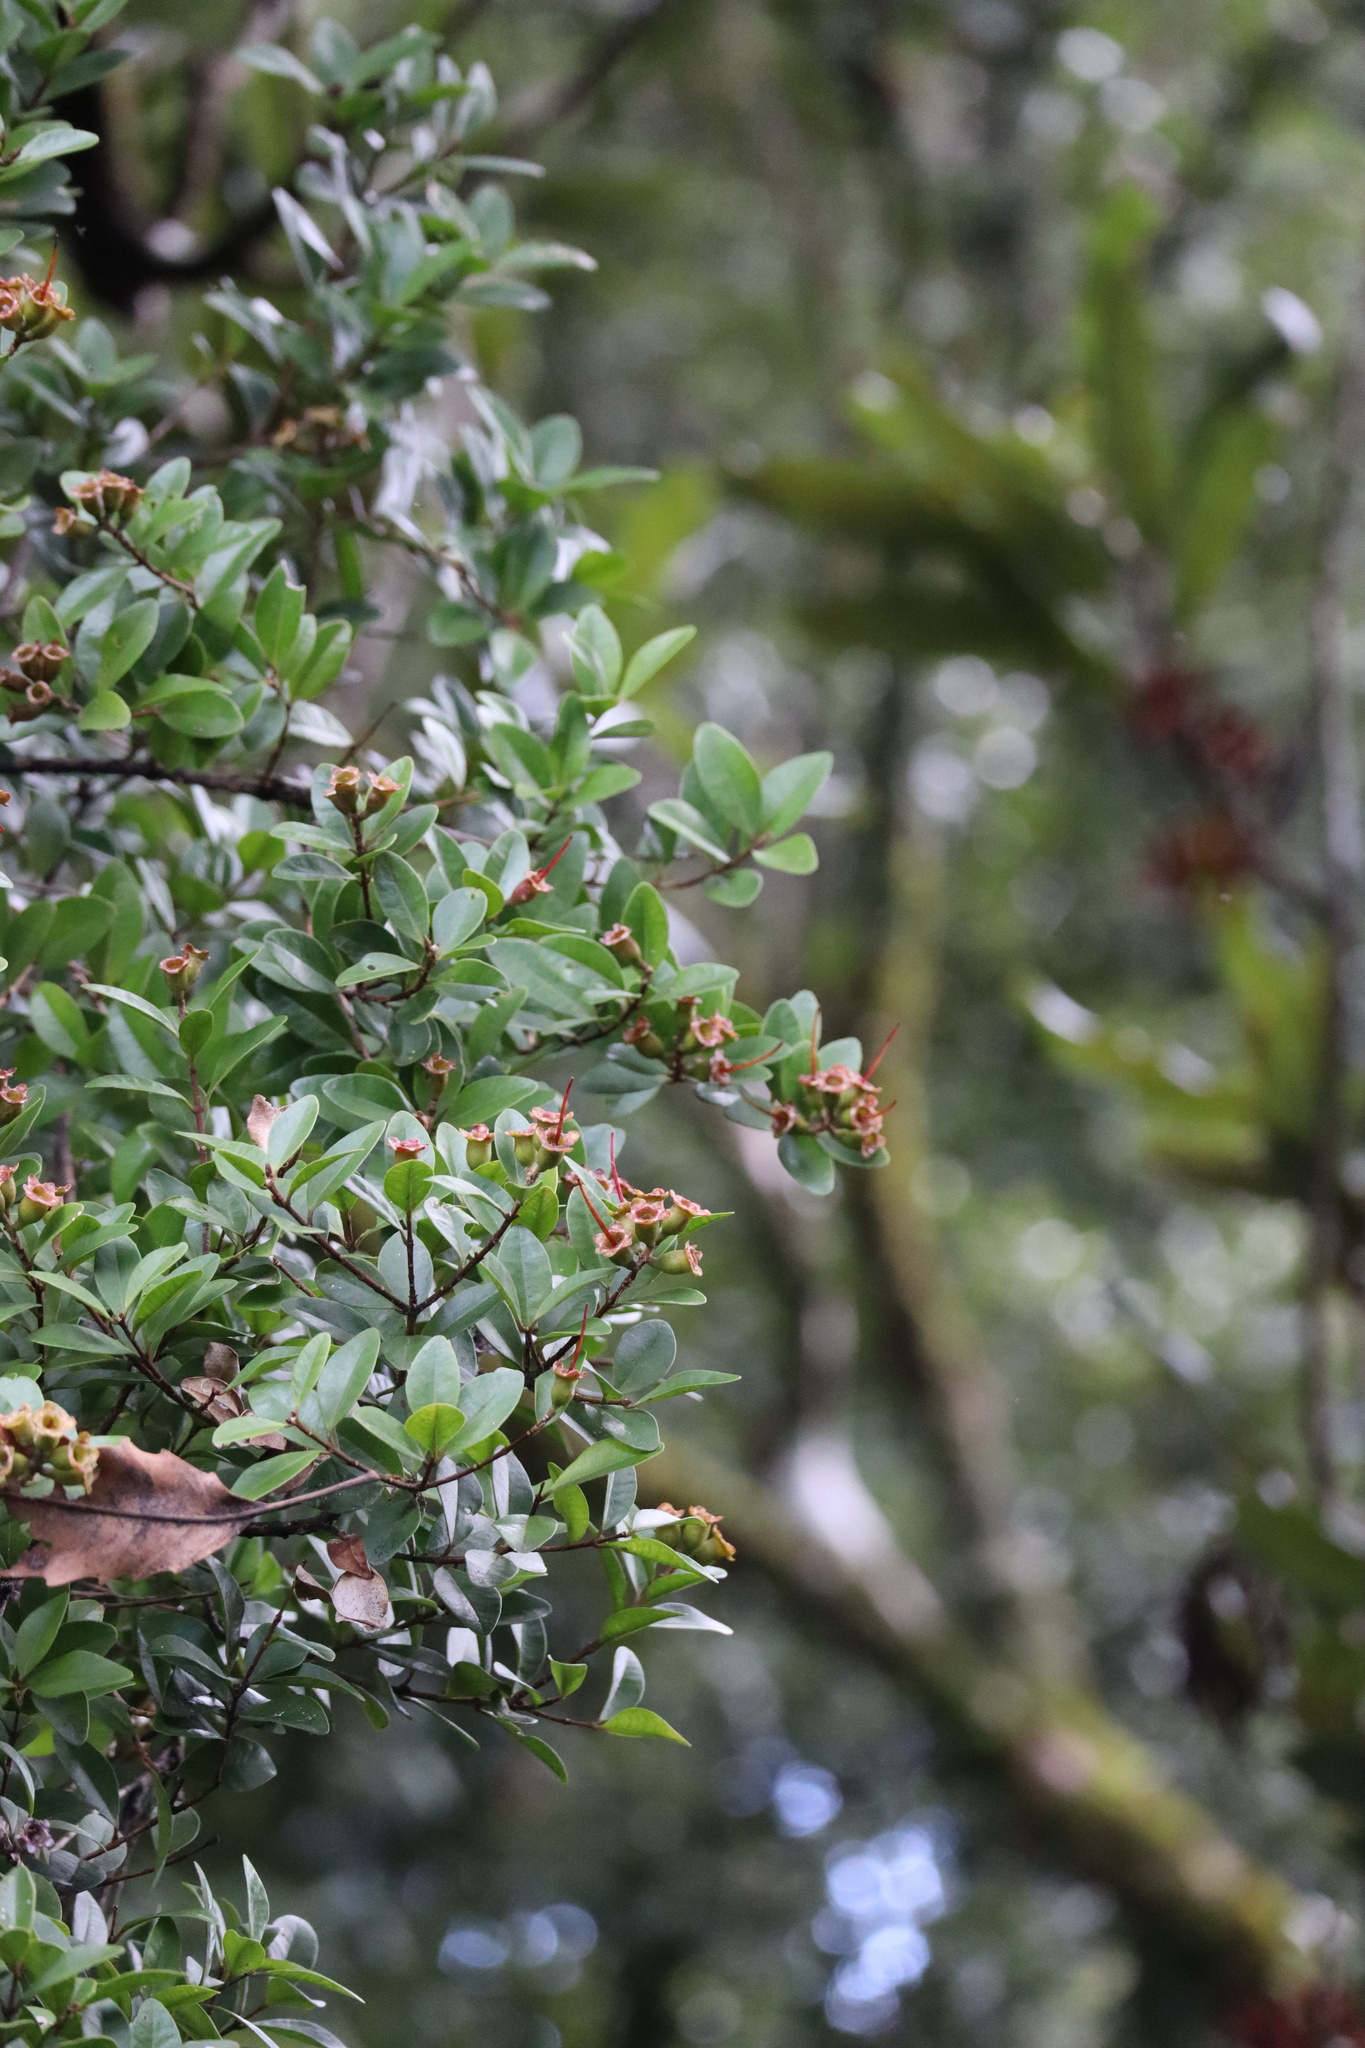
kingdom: Plantae
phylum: Tracheophyta
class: Magnoliopsida
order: Myrtales
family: Myrtaceae
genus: Metrosideros
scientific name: Metrosideros fulgens
